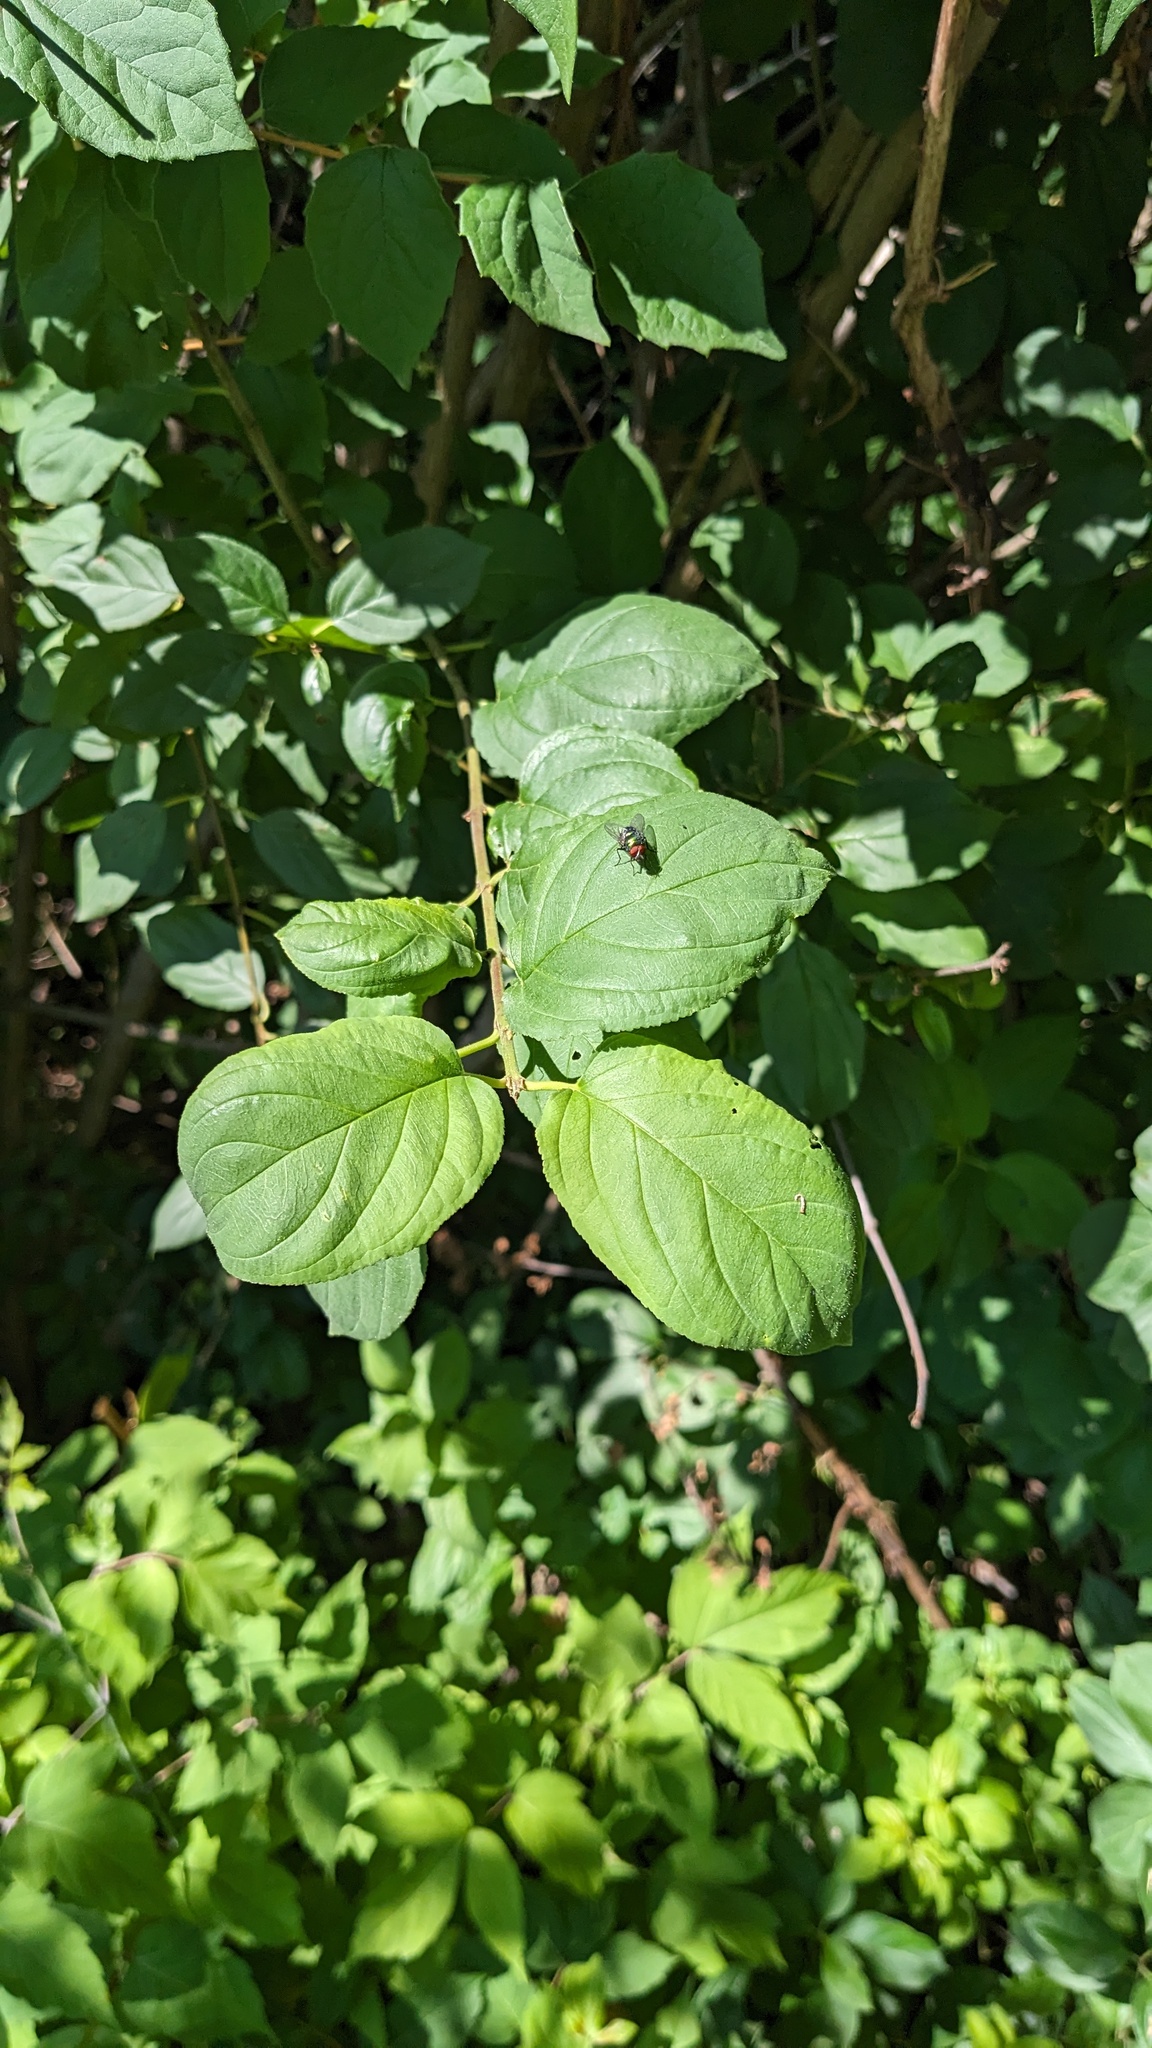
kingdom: Plantae
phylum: Tracheophyta
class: Magnoliopsida
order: Rosales
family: Rhamnaceae
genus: Rhamnus
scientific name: Rhamnus cathartica
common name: Common buckthorn
